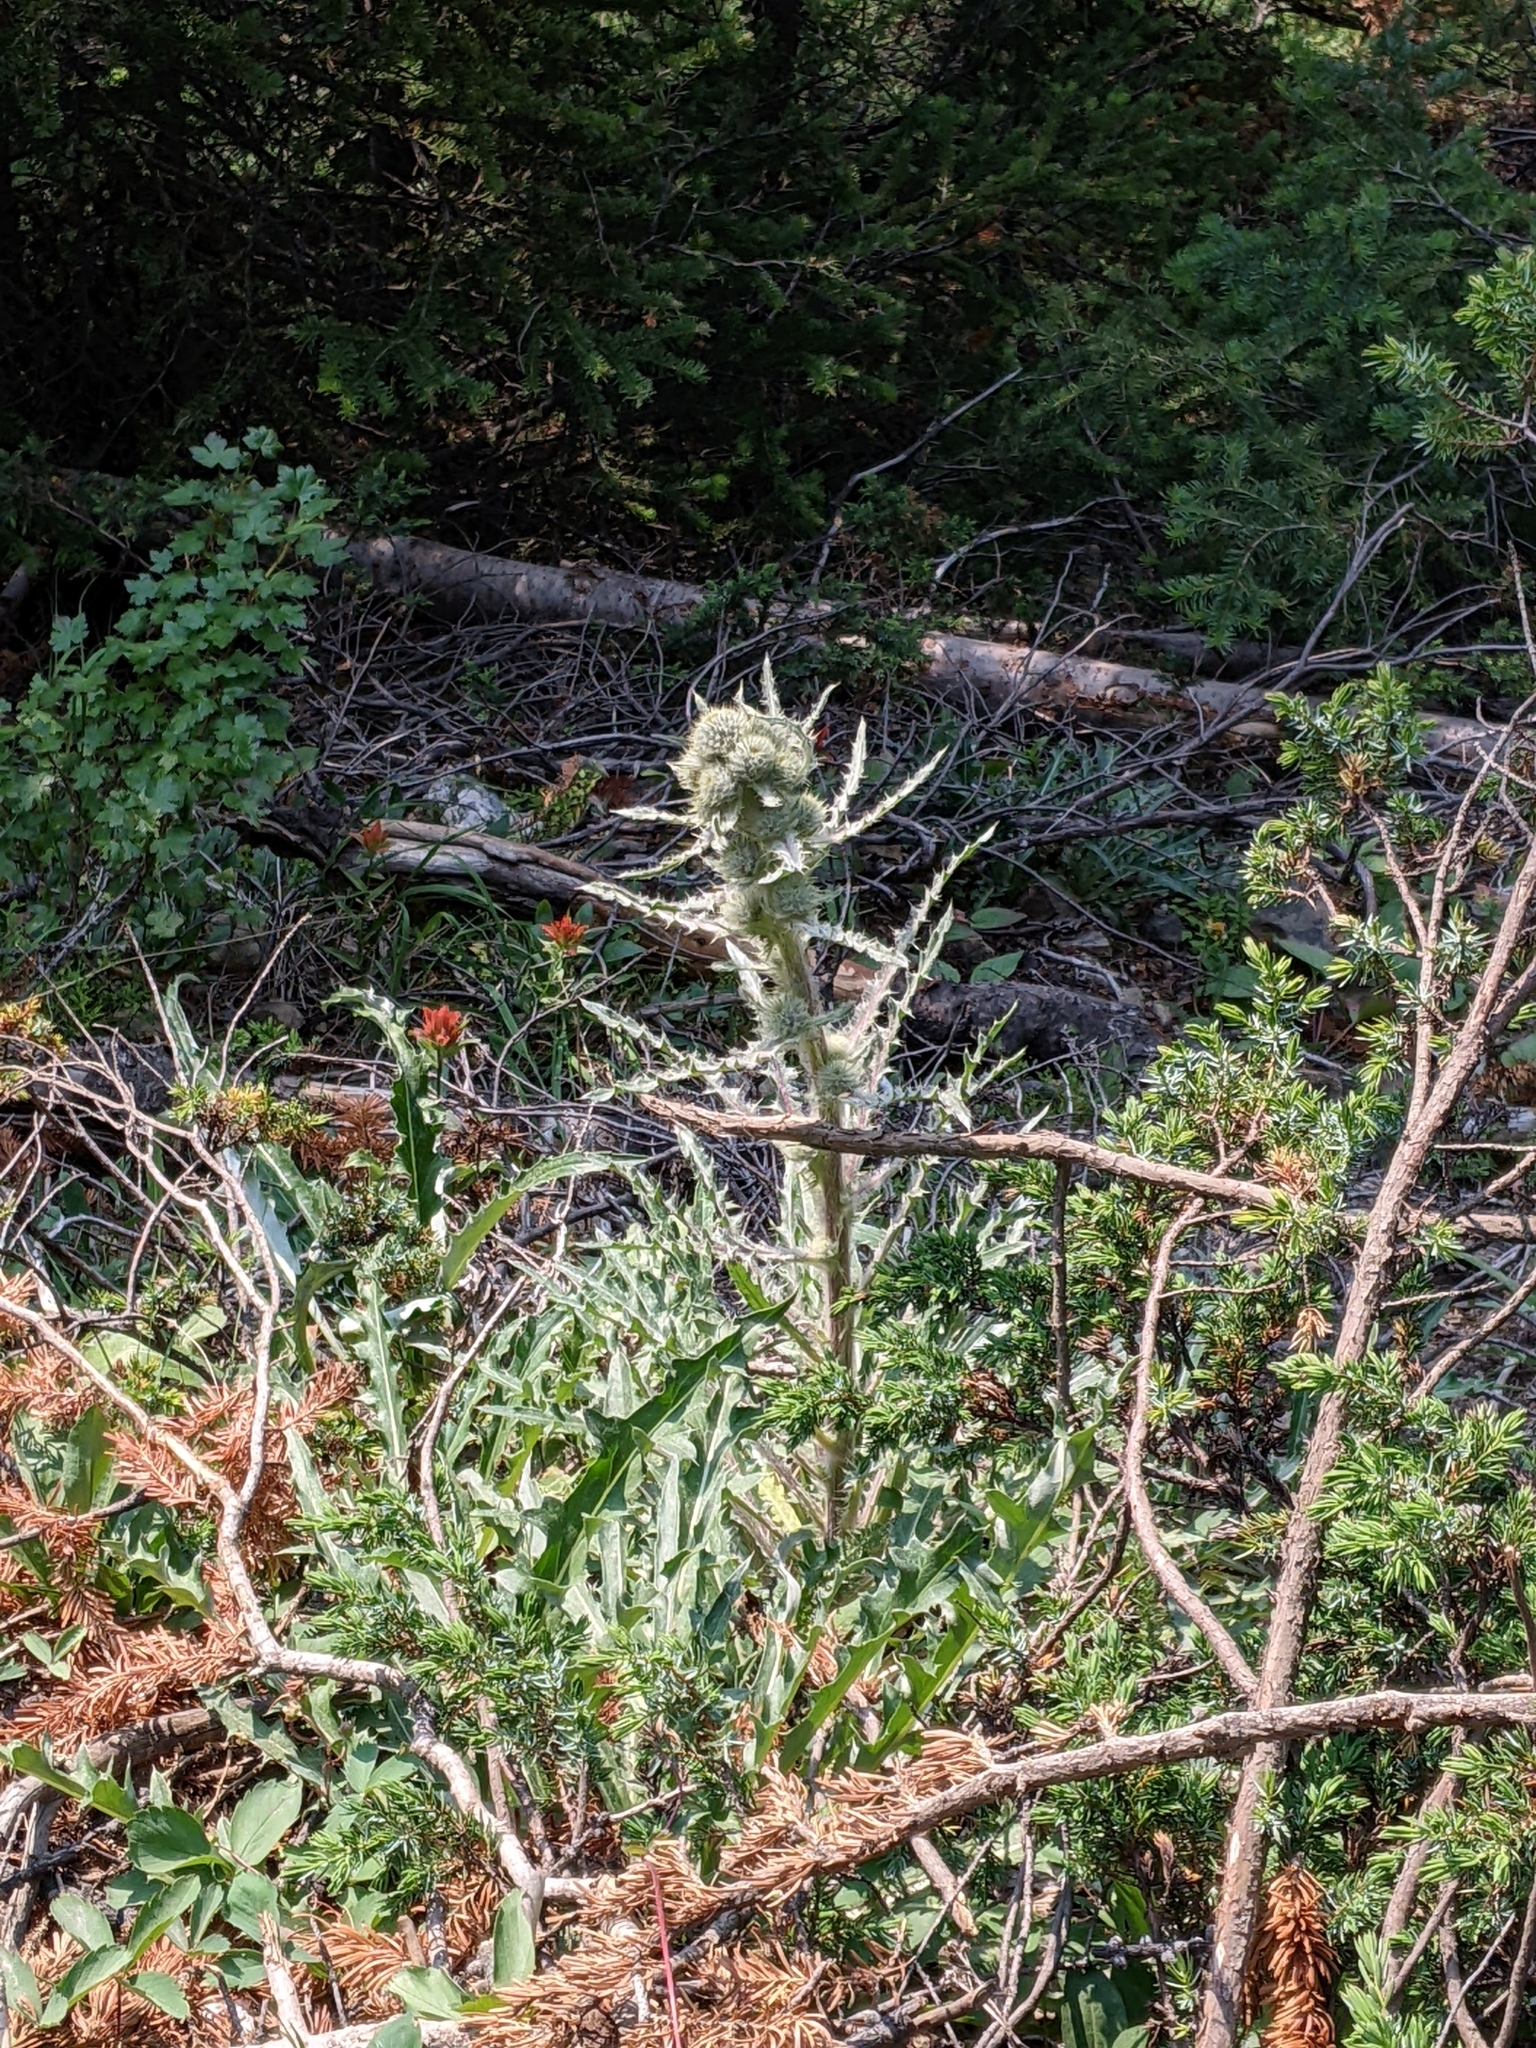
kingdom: Plantae
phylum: Tracheophyta
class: Magnoliopsida
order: Asterales
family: Asteraceae
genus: Cirsium
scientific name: Cirsium hookerianum
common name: Hooker's thistle
